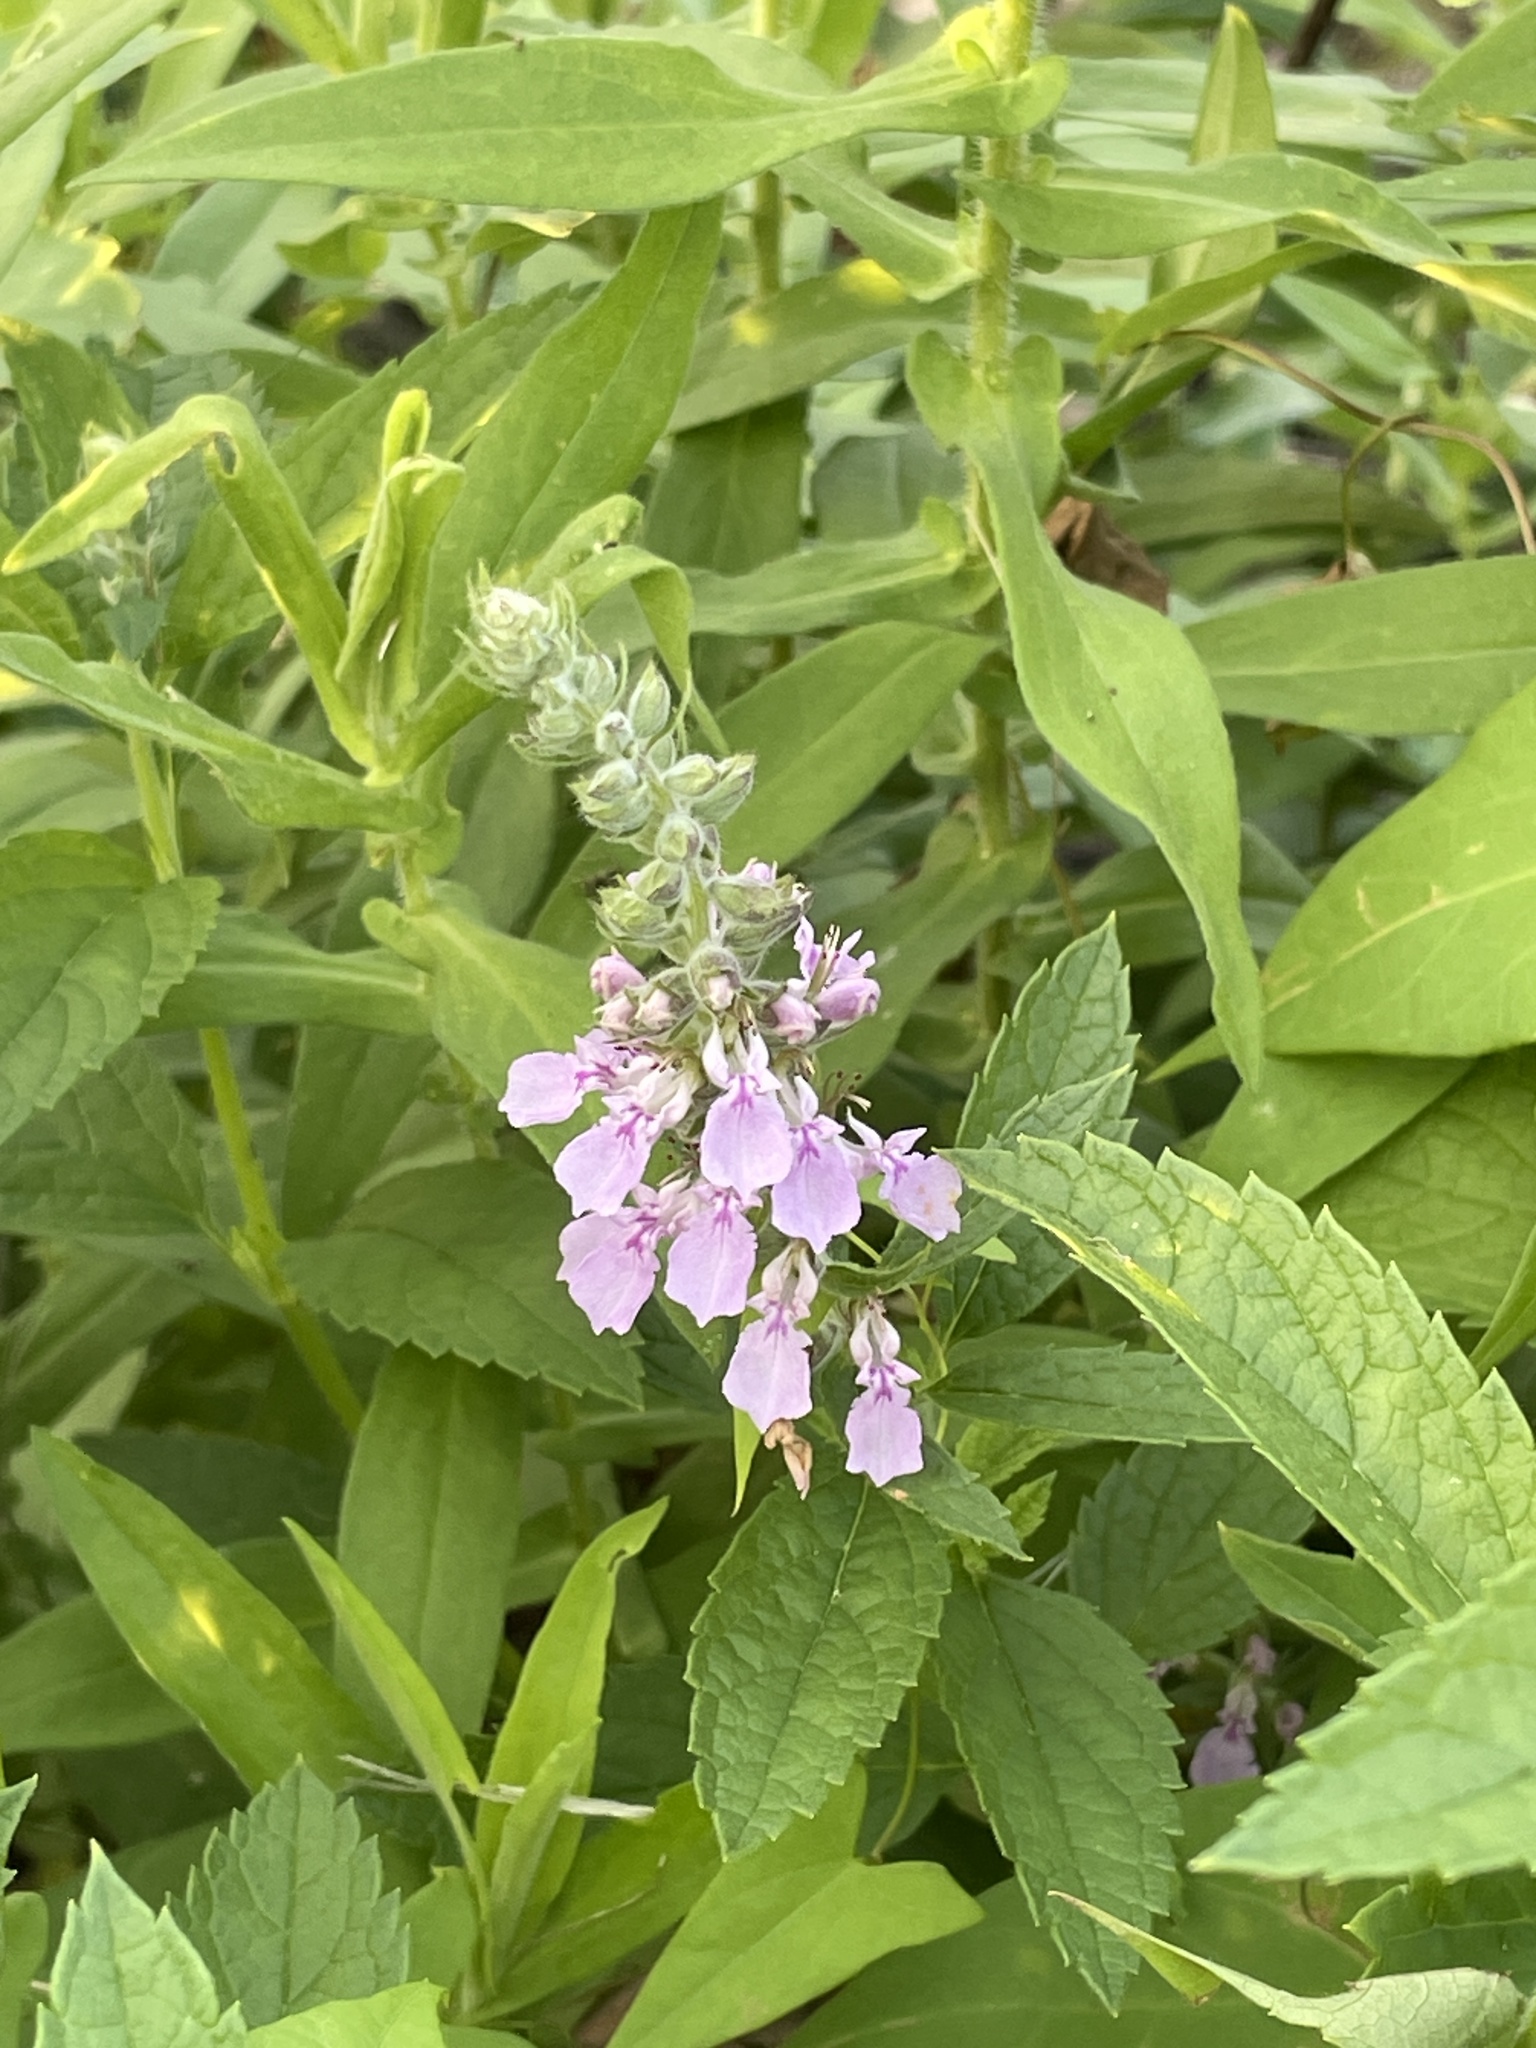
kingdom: Plantae
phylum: Tracheophyta
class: Magnoliopsida
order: Lamiales
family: Lamiaceae
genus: Teucrium
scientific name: Teucrium canadense
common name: American germander
